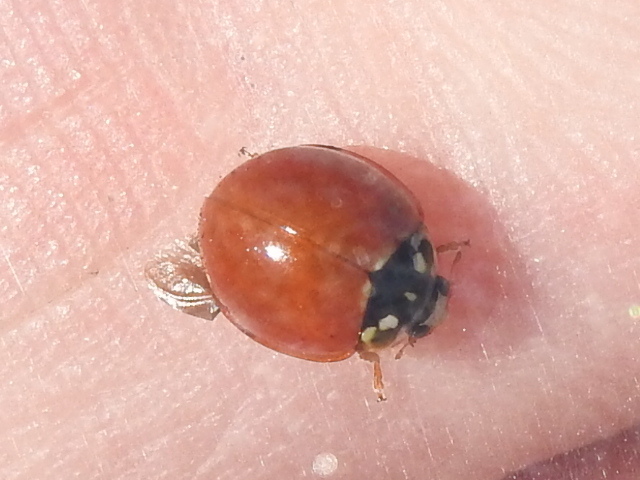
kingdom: Animalia
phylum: Arthropoda
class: Insecta
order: Coleoptera
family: Coccinellidae
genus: Cycloneda
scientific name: Cycloneda sanguinea
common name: Ladybird beetle
